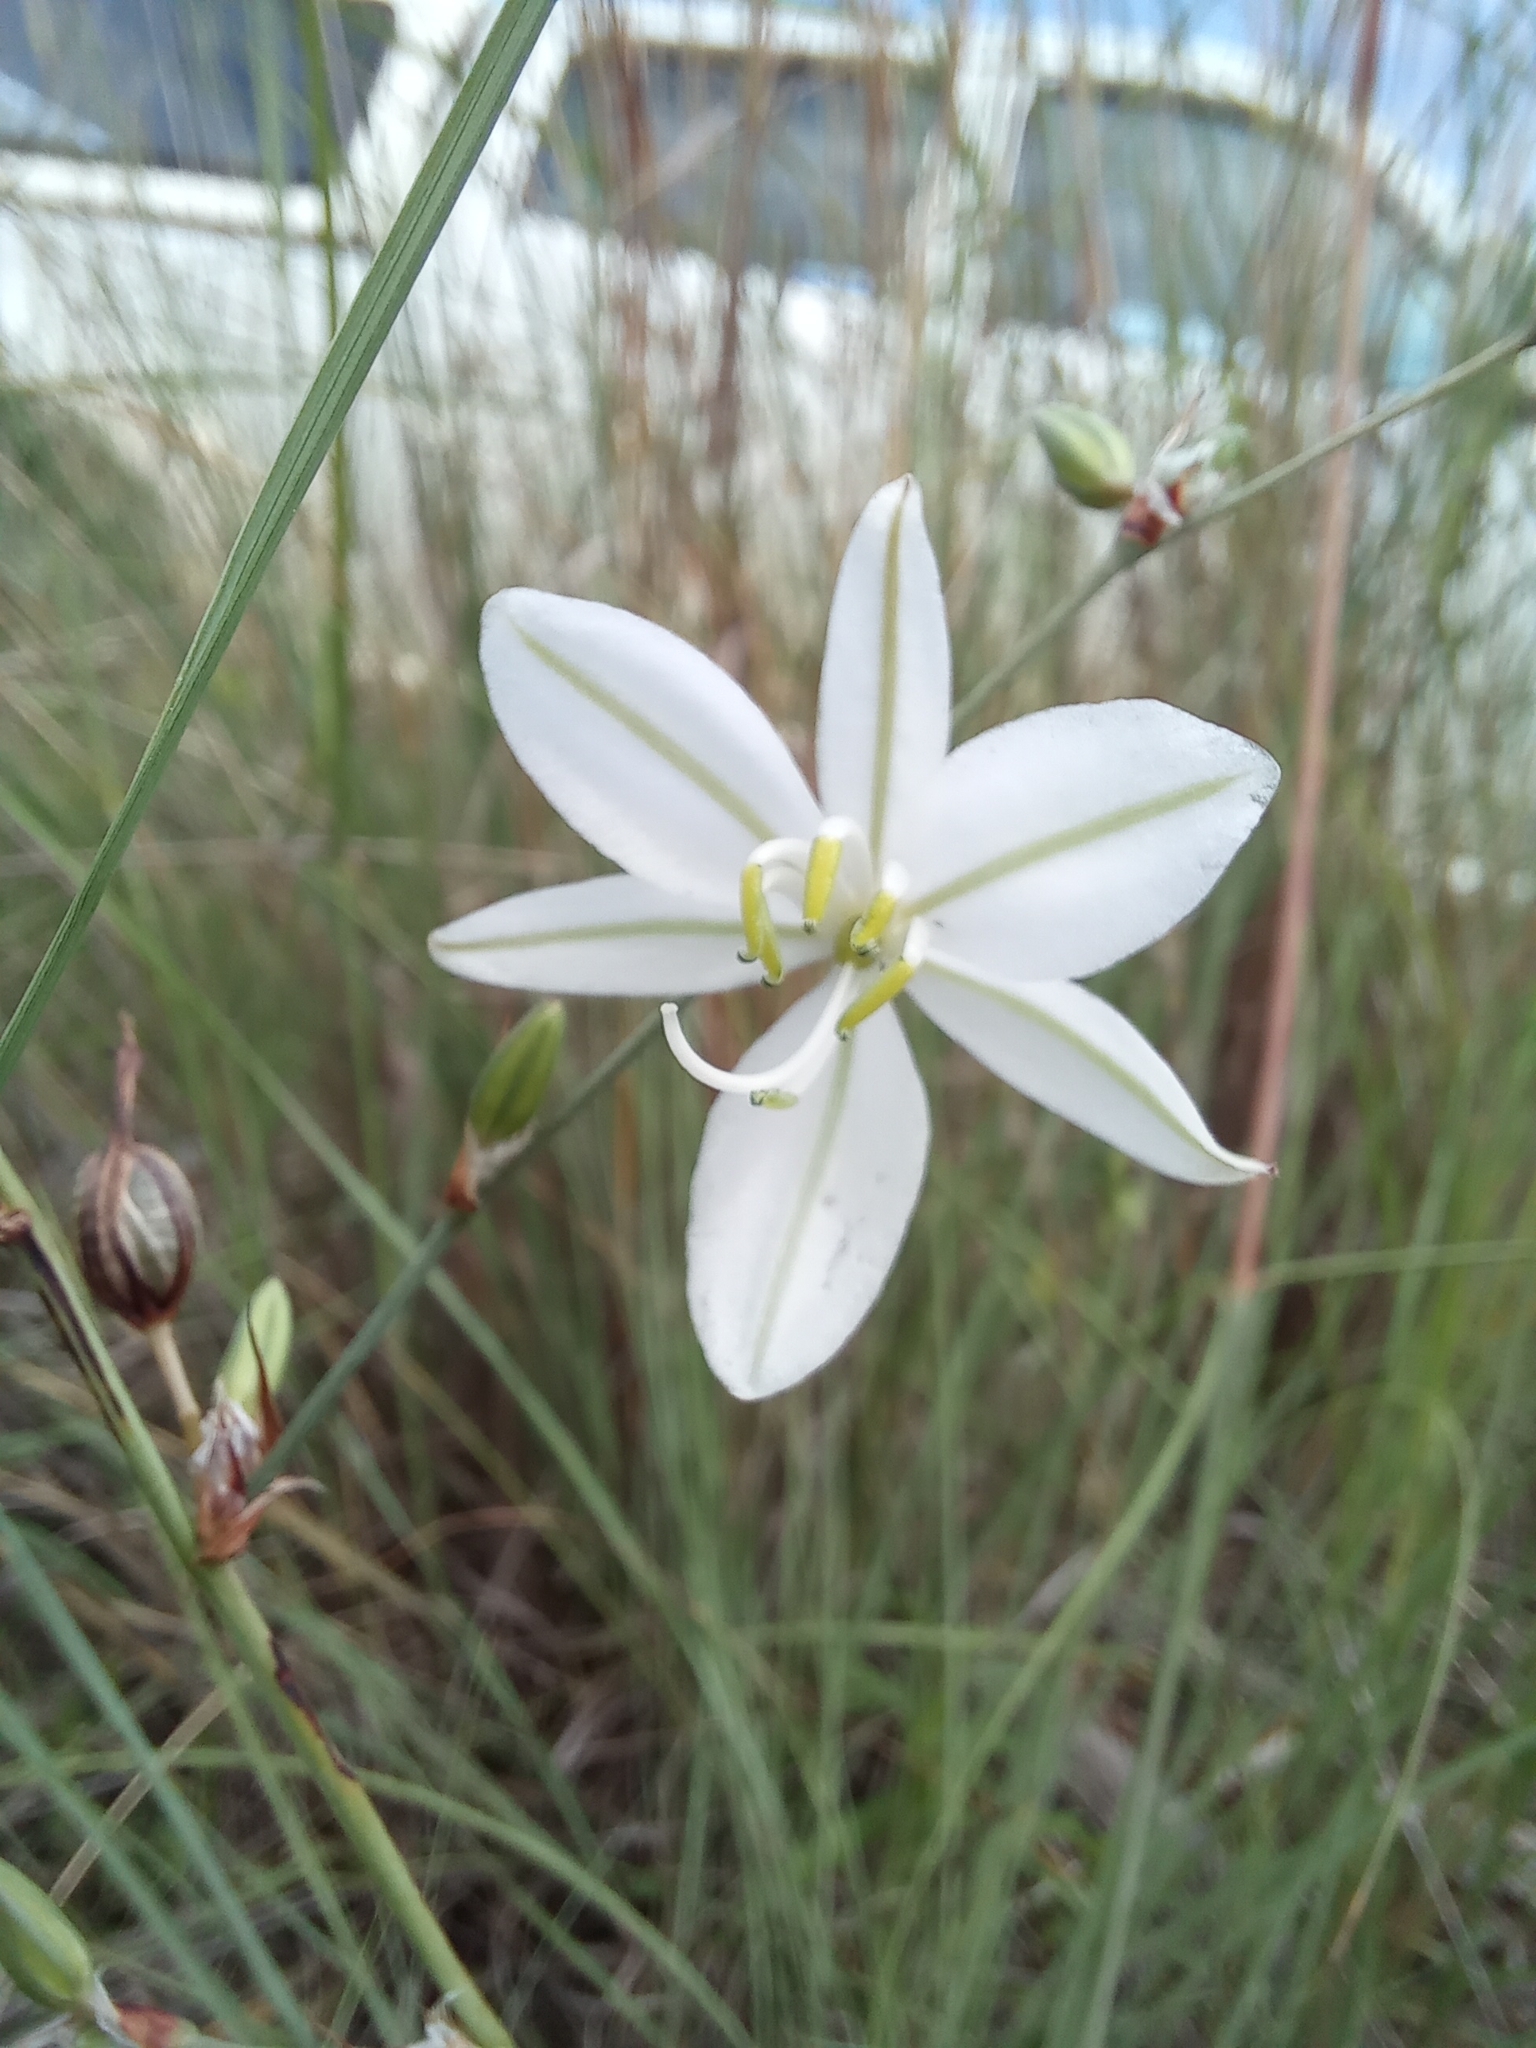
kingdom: Plantae
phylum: Tracheophyta
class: Liliopsida
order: Asparagales
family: Asparagaceae
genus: Chlorophytum
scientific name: Chlorophytum galpinii
